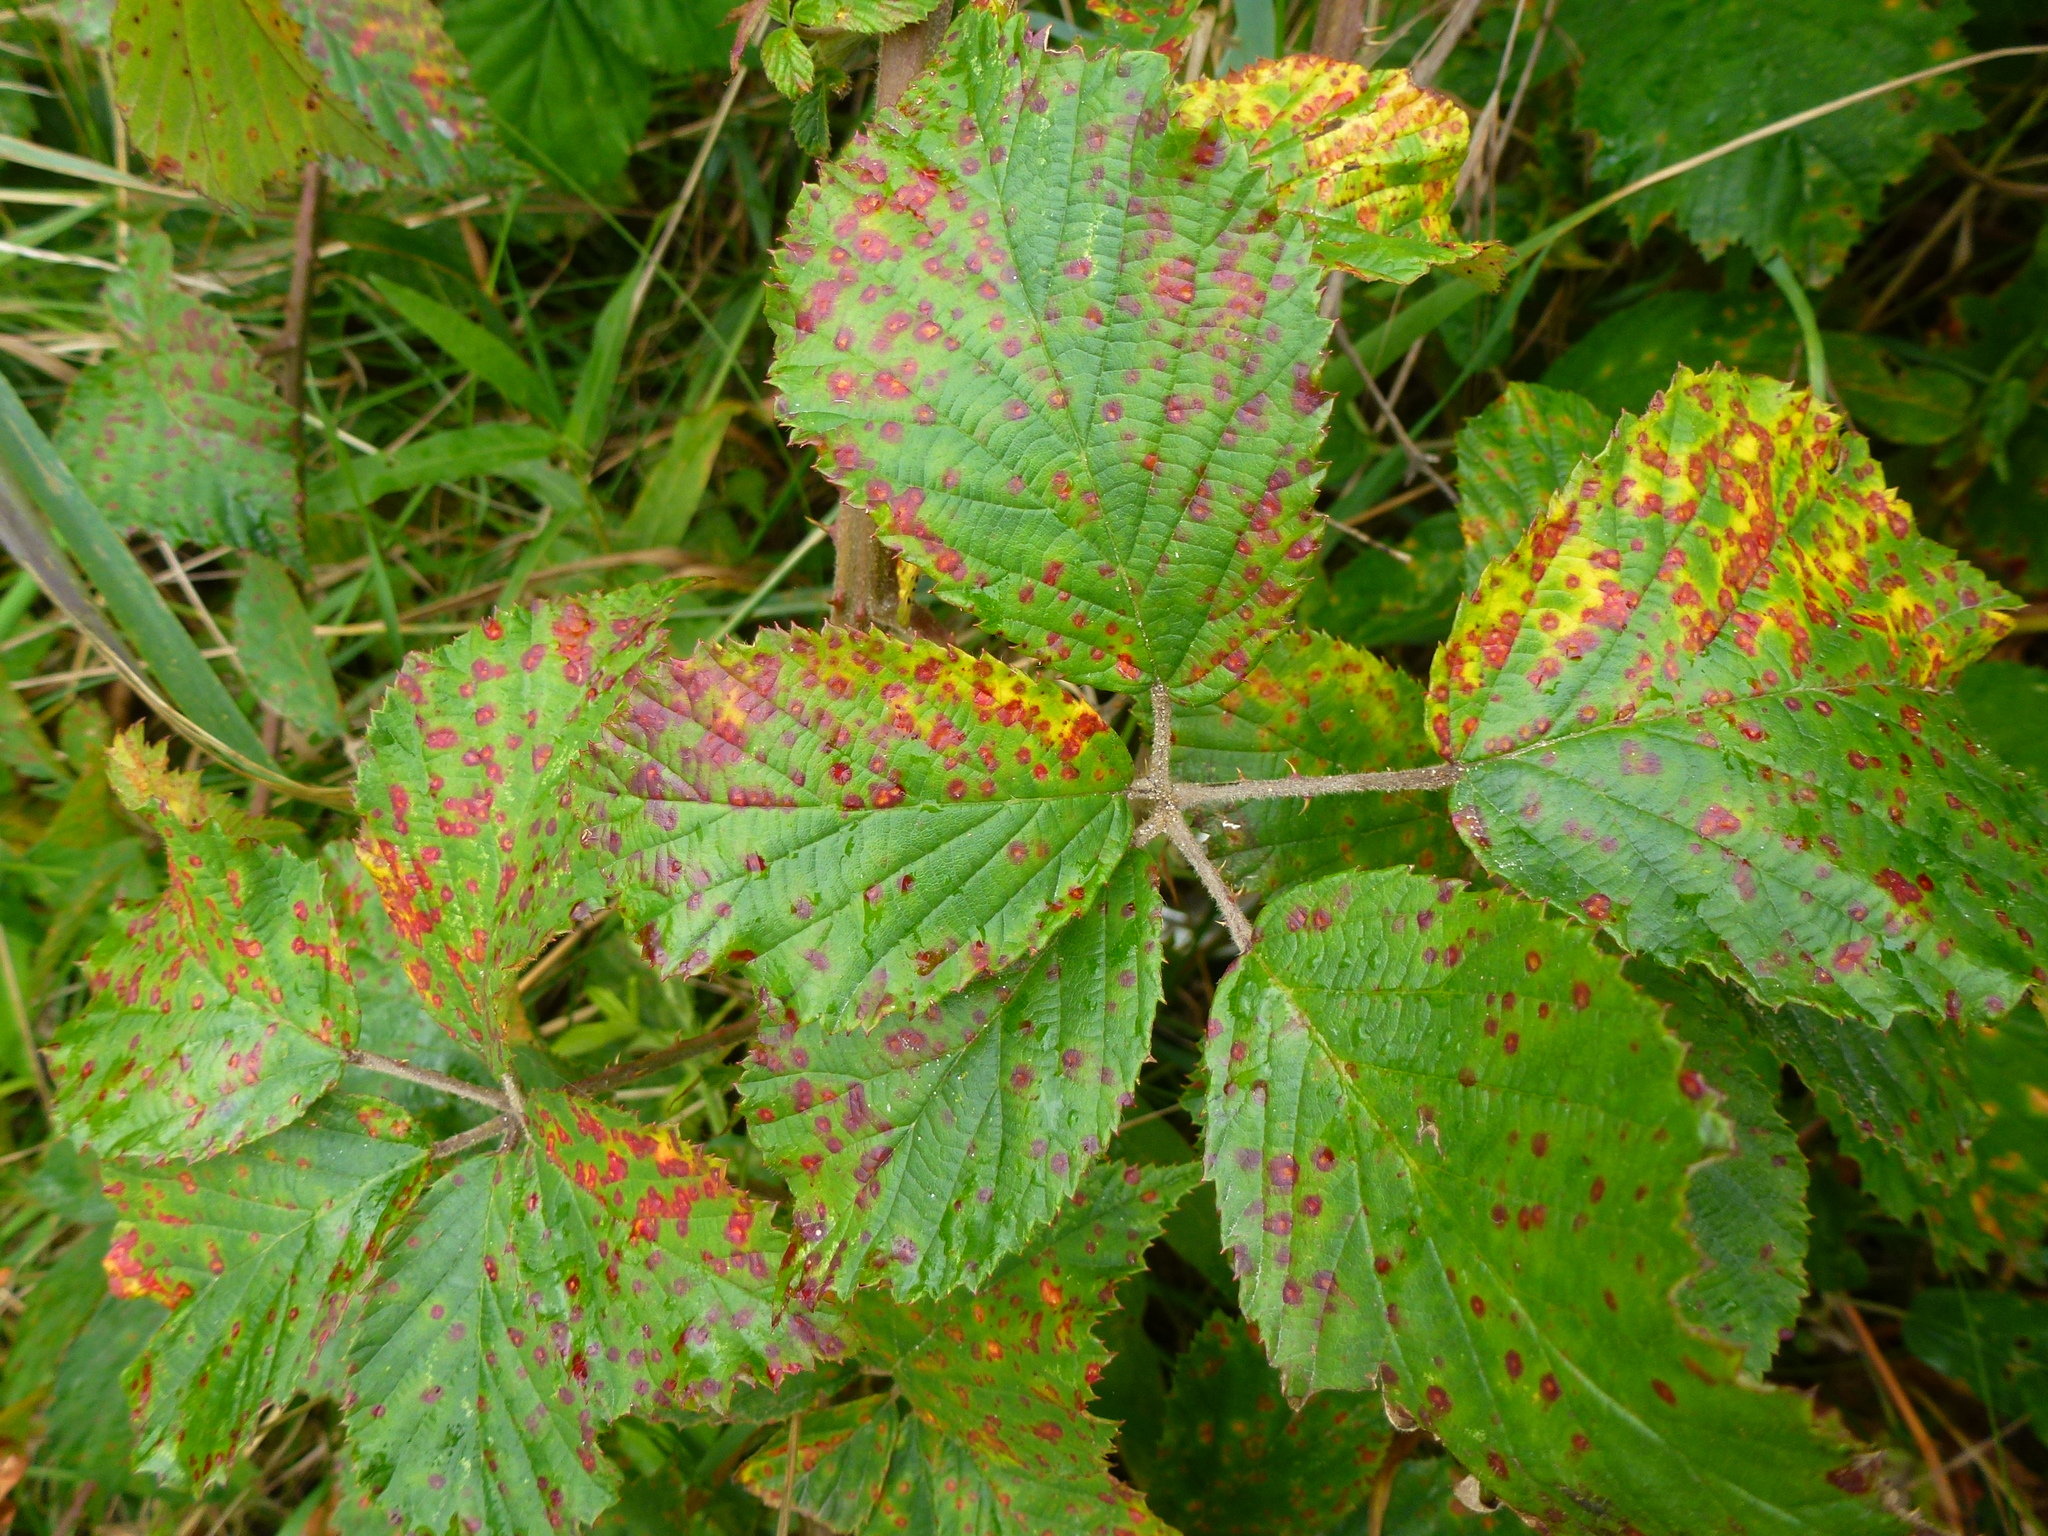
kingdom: Fungi
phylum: Basidiomycota
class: Pucciniomycetes
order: Pucciniales
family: Phragmidiaceae
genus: Phragmidium
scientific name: Phragmidium violaceum
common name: Violet bramble rust
